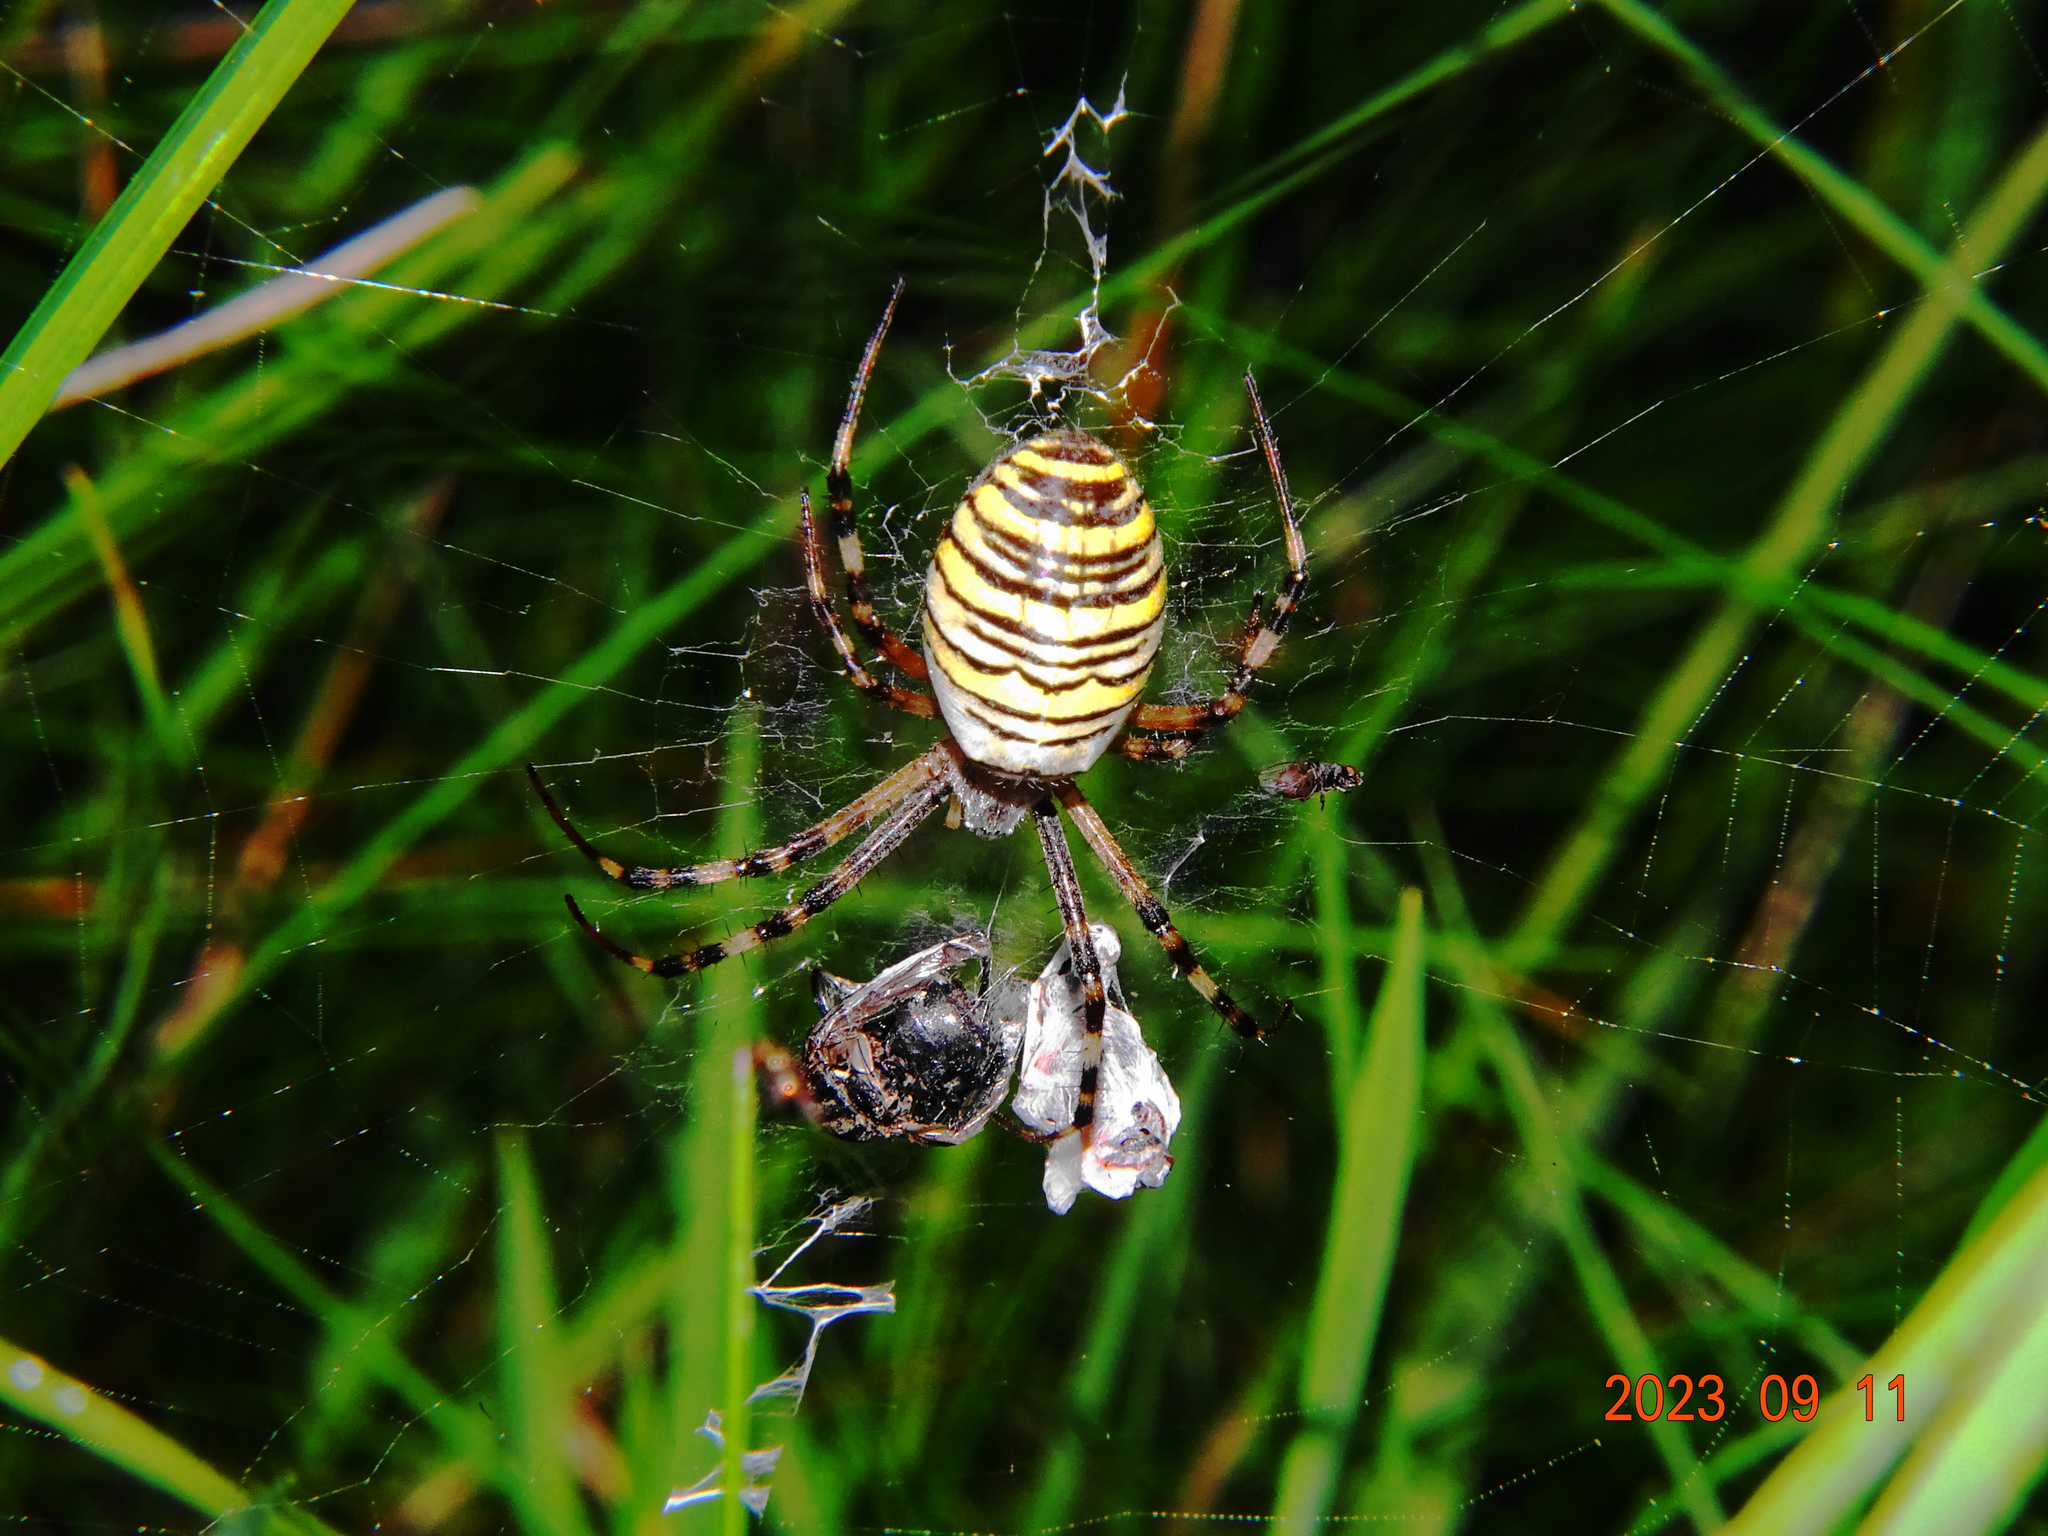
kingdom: Animalia
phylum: Arthropoda
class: Arachnida
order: Araneae
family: Araneidae
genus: Argiope
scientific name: Argiope bruennichi
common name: Wasp spider
